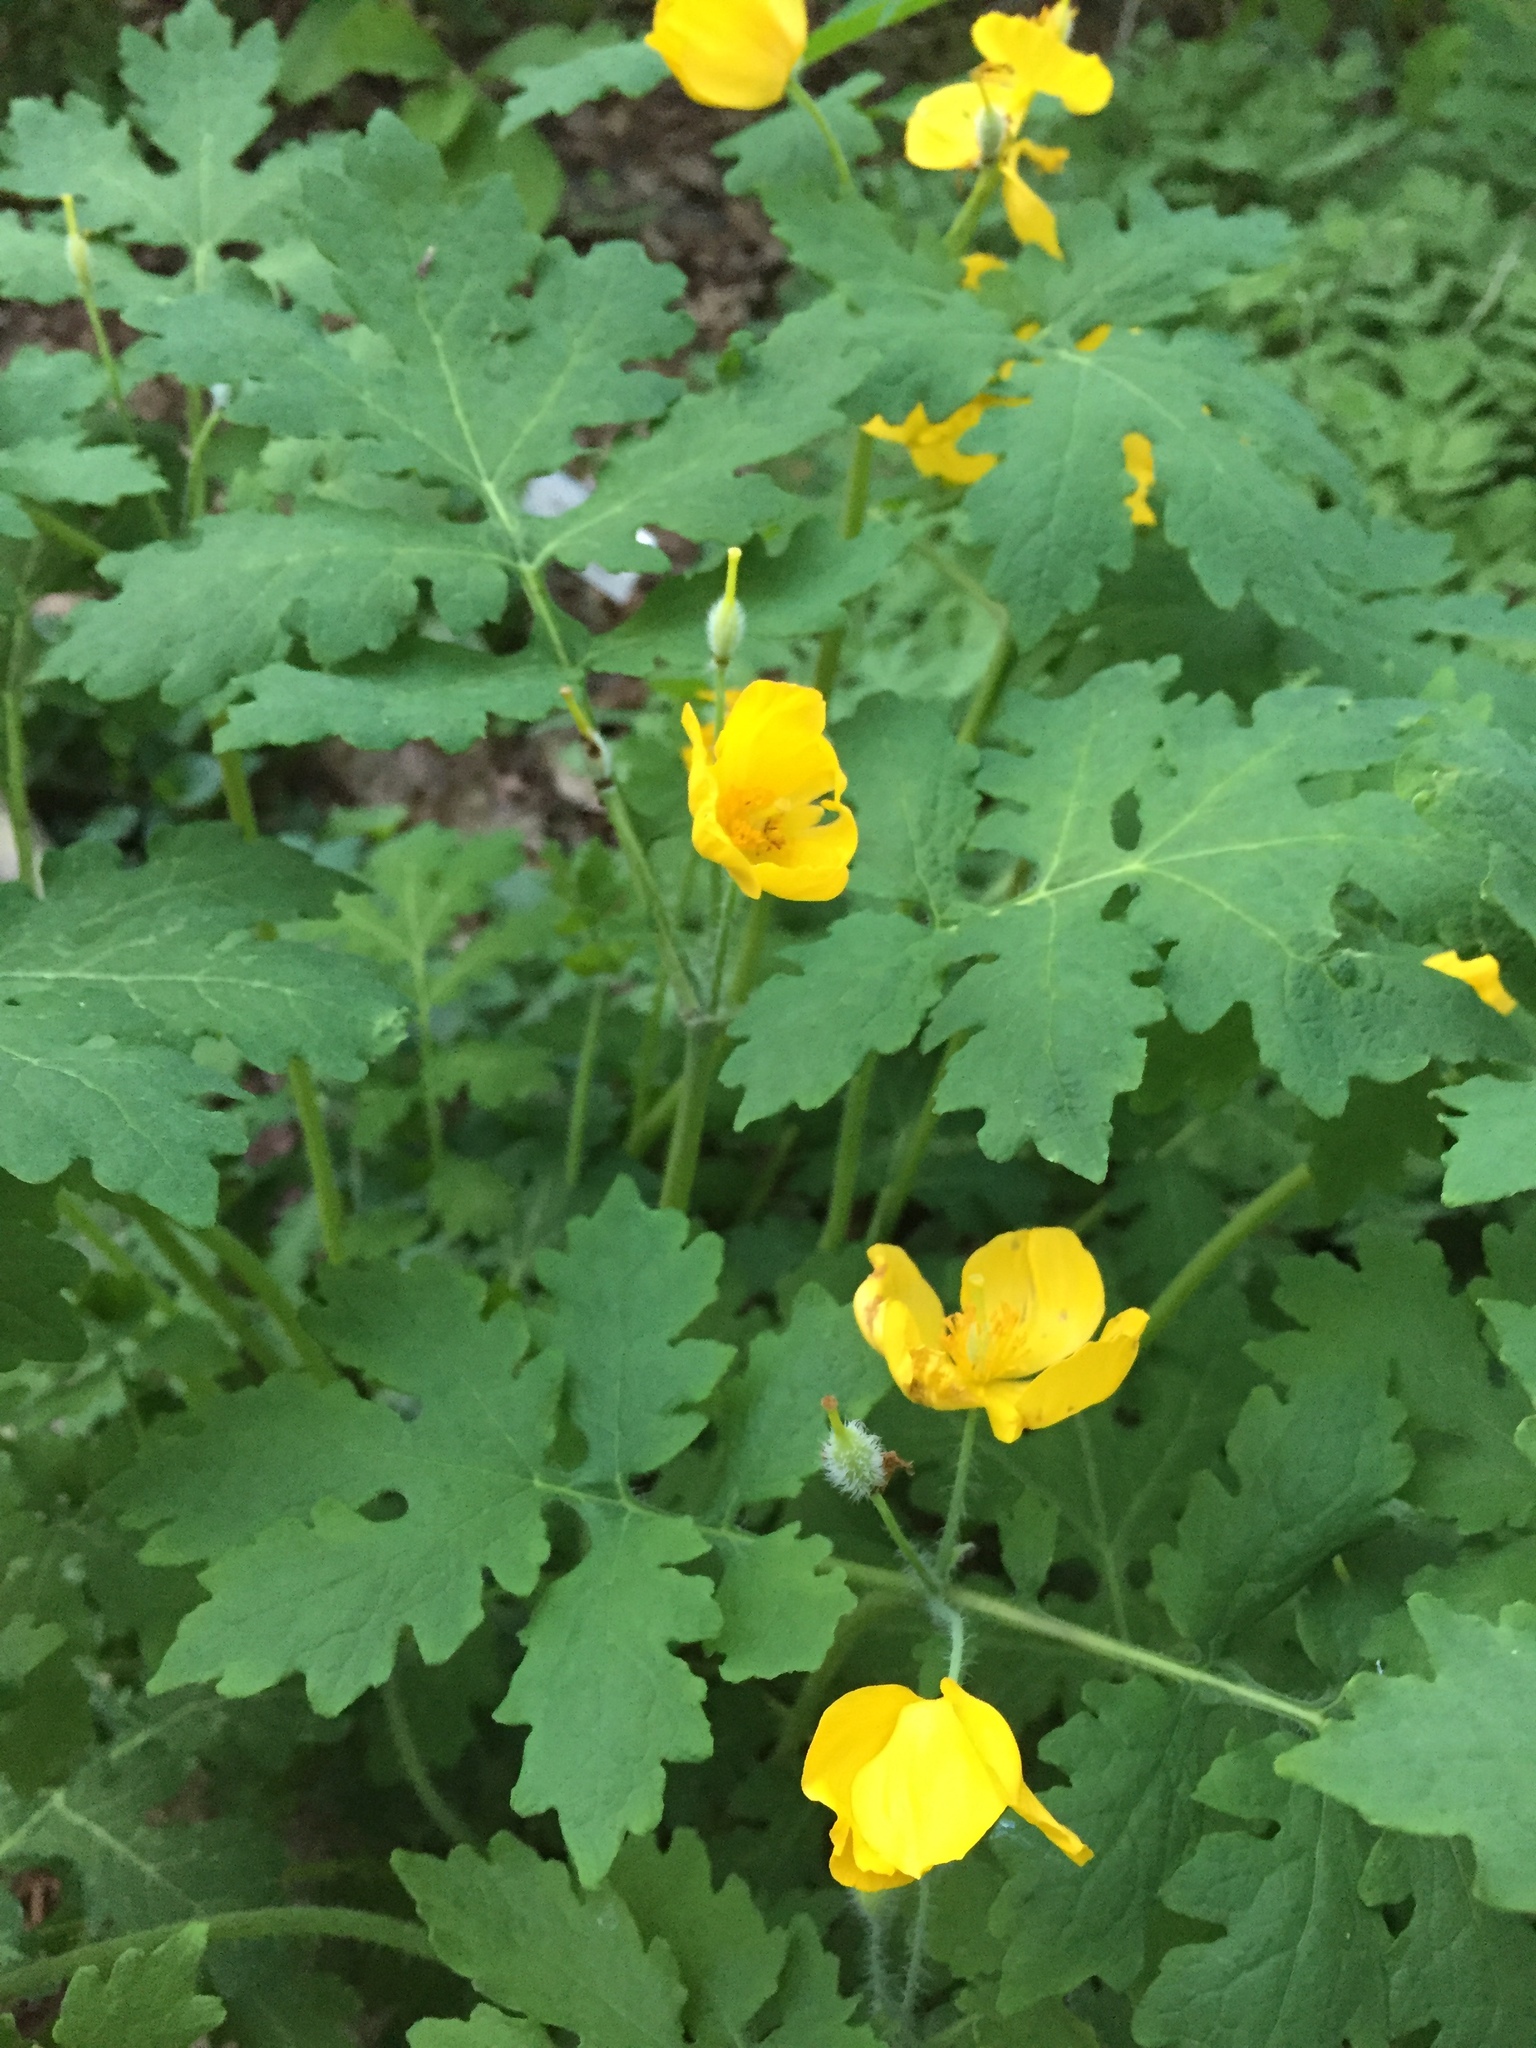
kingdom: Plantae
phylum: Tracheophyta
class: Magnoliopsida
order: Ranunculales
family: Papaveraceae
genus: Stylophorum
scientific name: Stylophorum diphyllum
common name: Celandine poppy
